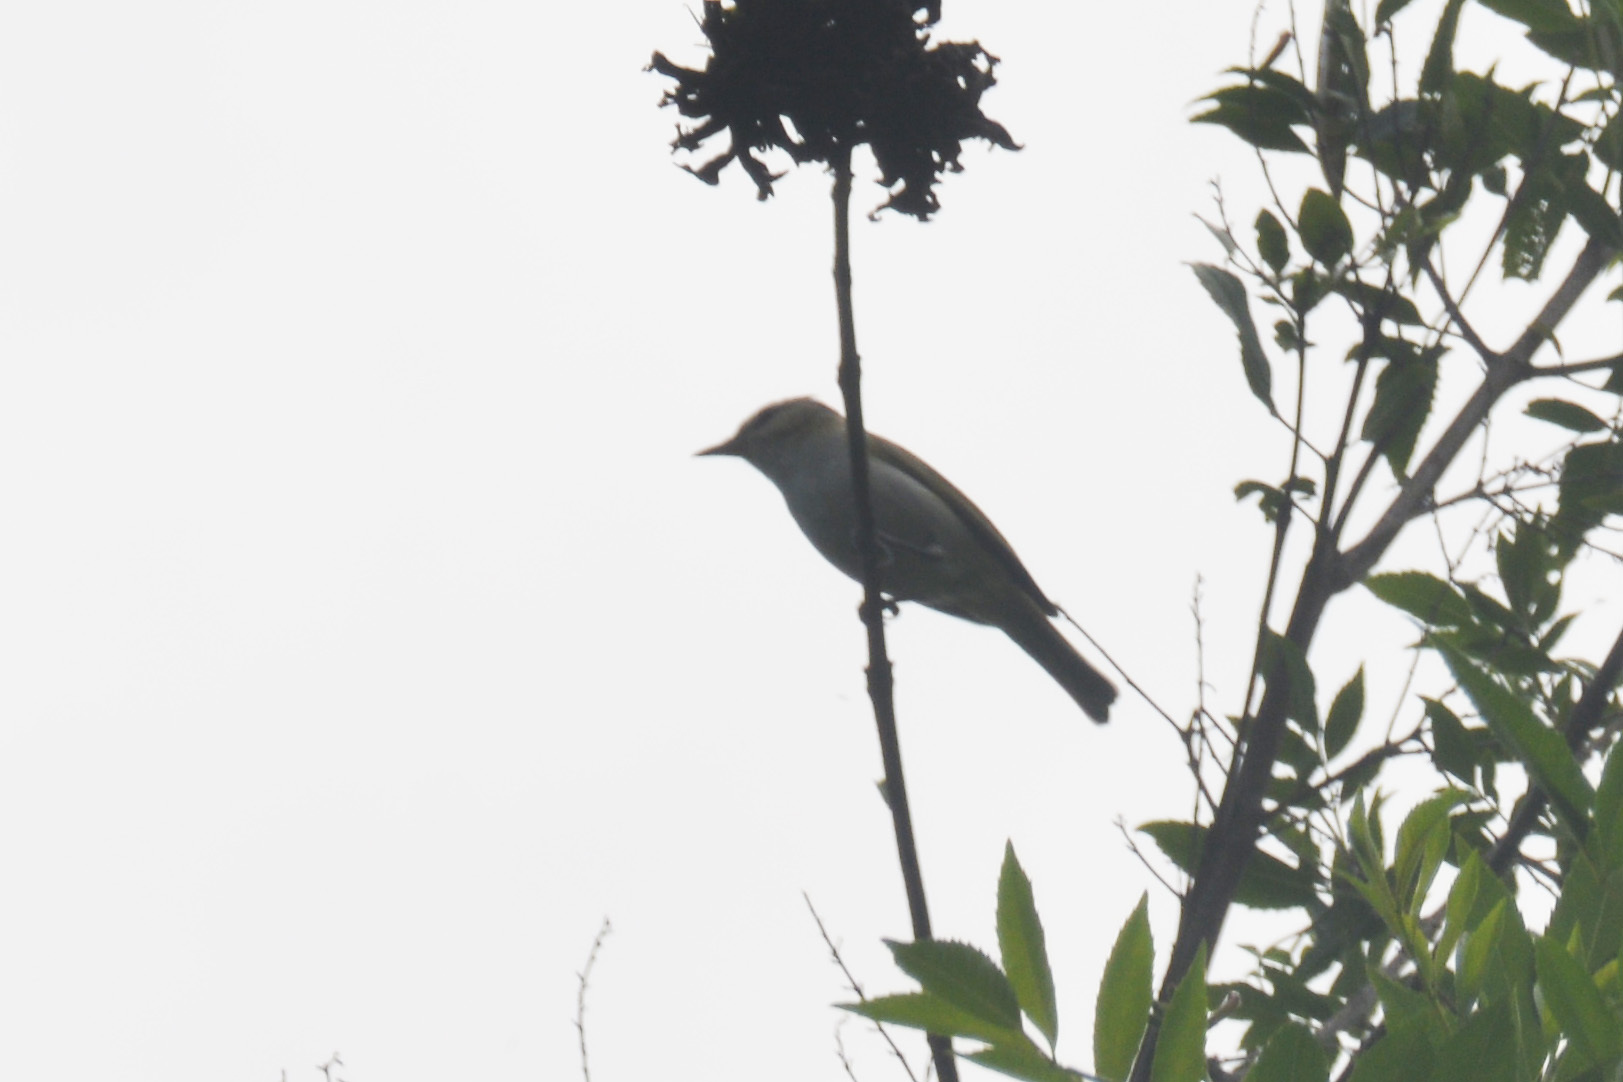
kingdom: Animalia
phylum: Chordata
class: Aves
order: Passeriformes
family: Vireonidae
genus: Vireo
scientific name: Vireo olivaceus
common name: Red-eyed vireo
